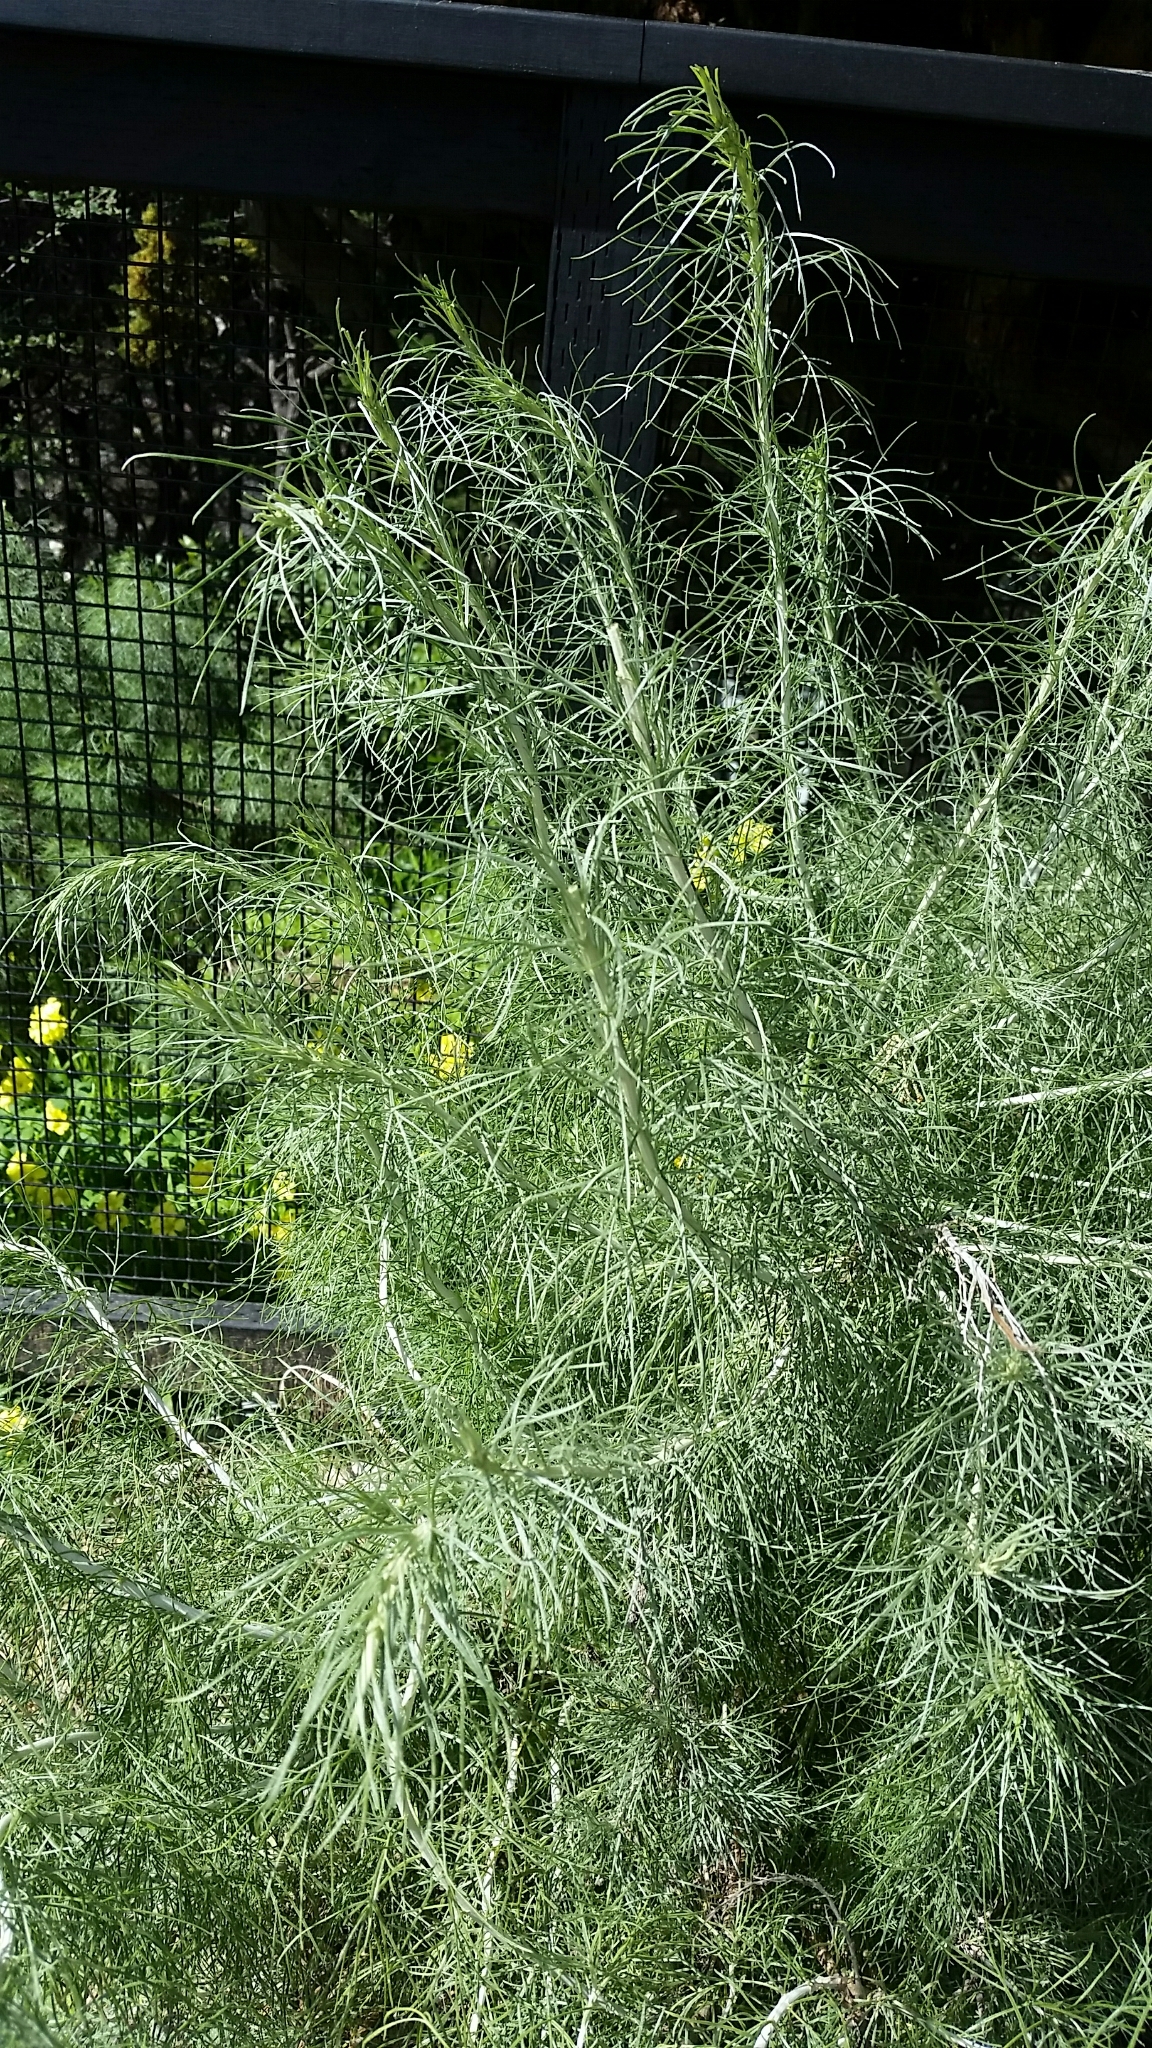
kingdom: Plantae
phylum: Tracheophyta
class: Magnoliopsida
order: Asterales
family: Asteraceae
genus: Artemisia
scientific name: Artemisia californica
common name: California sagebrush
